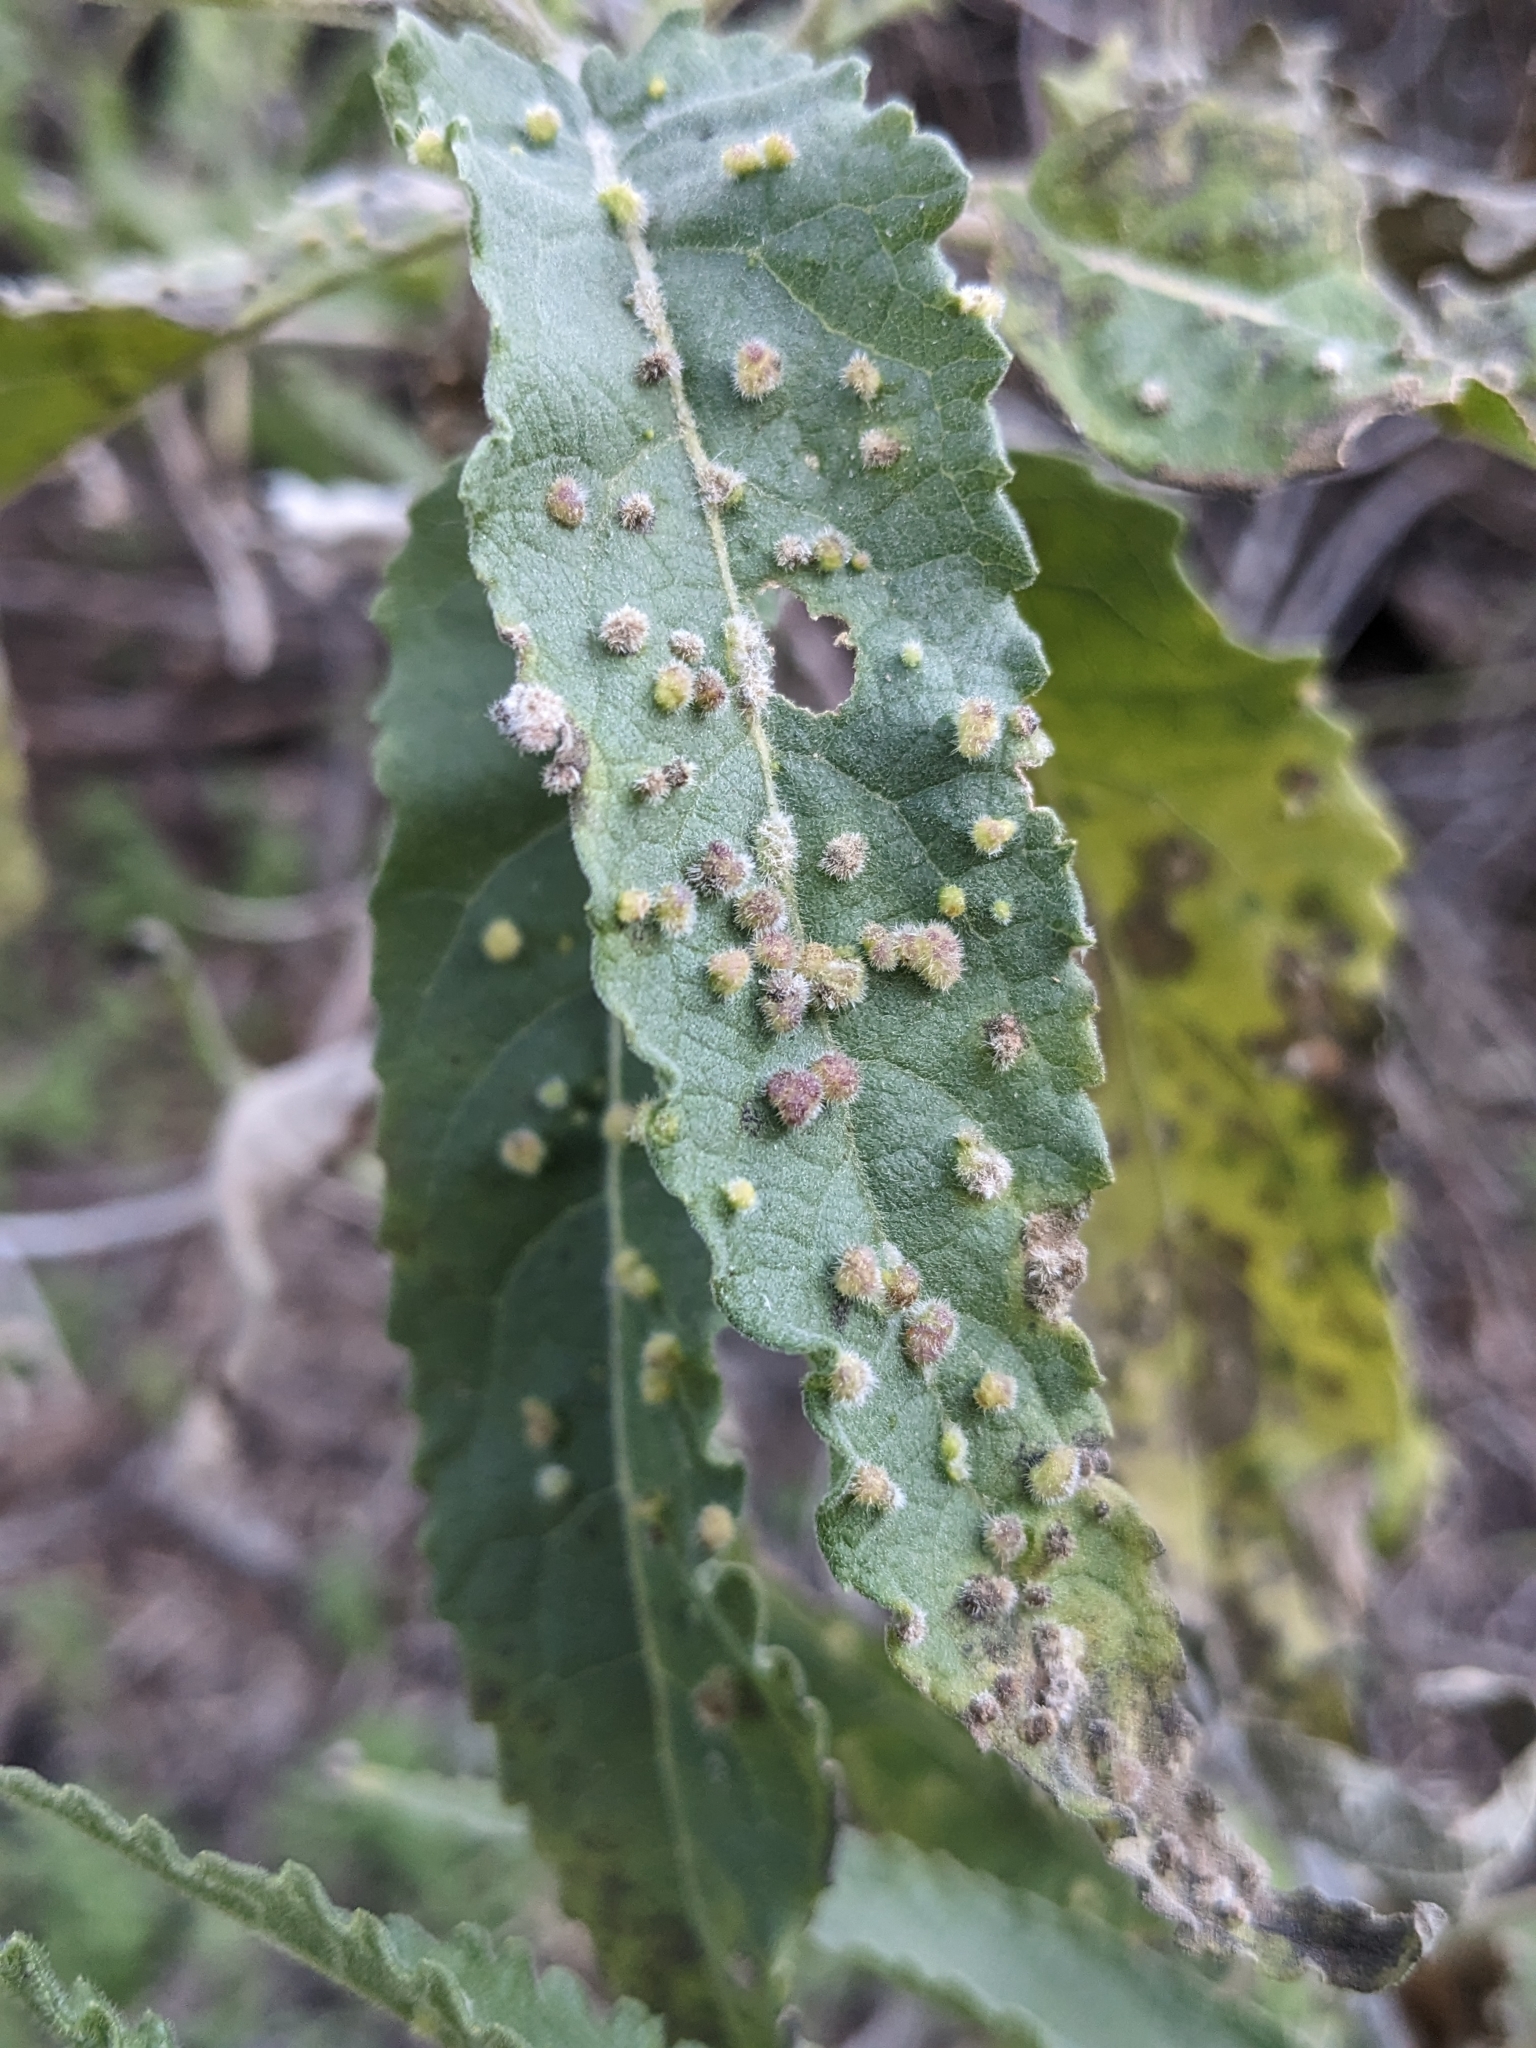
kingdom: Animalia
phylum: Arthropoda
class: Arachnida
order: Trombidiformes
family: Eriophyidae
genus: Aceria
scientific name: Aceria
